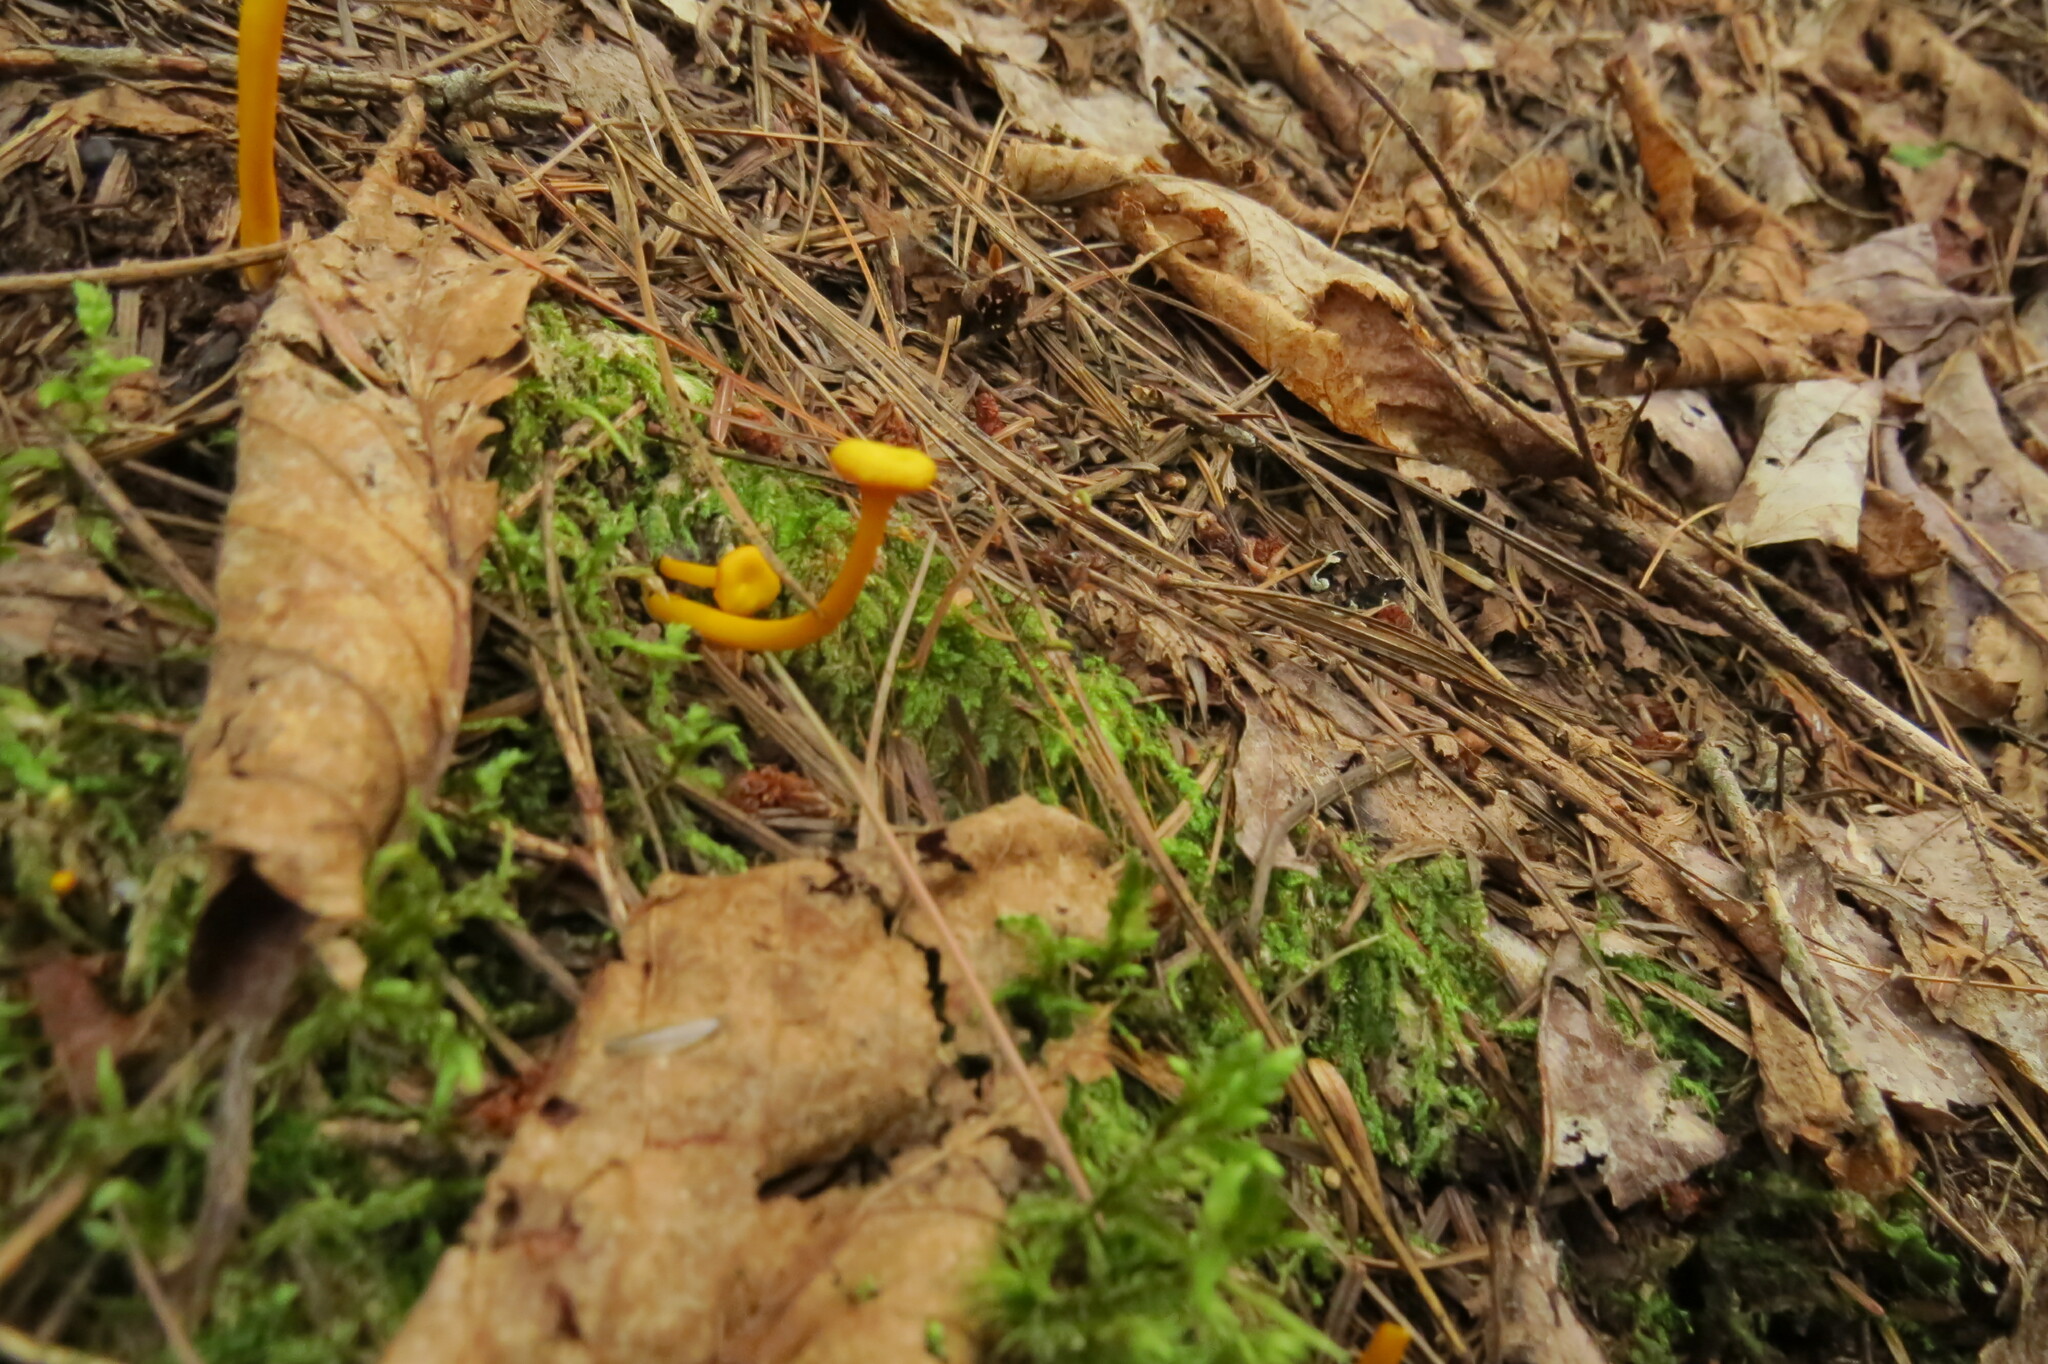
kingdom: Fungi
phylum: Basidiomycota
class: Agaricomycetes
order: Agaricales
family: Hygrophoraceae
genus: Gloioxanthomyces
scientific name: Gloioxanthomyces nitidus
